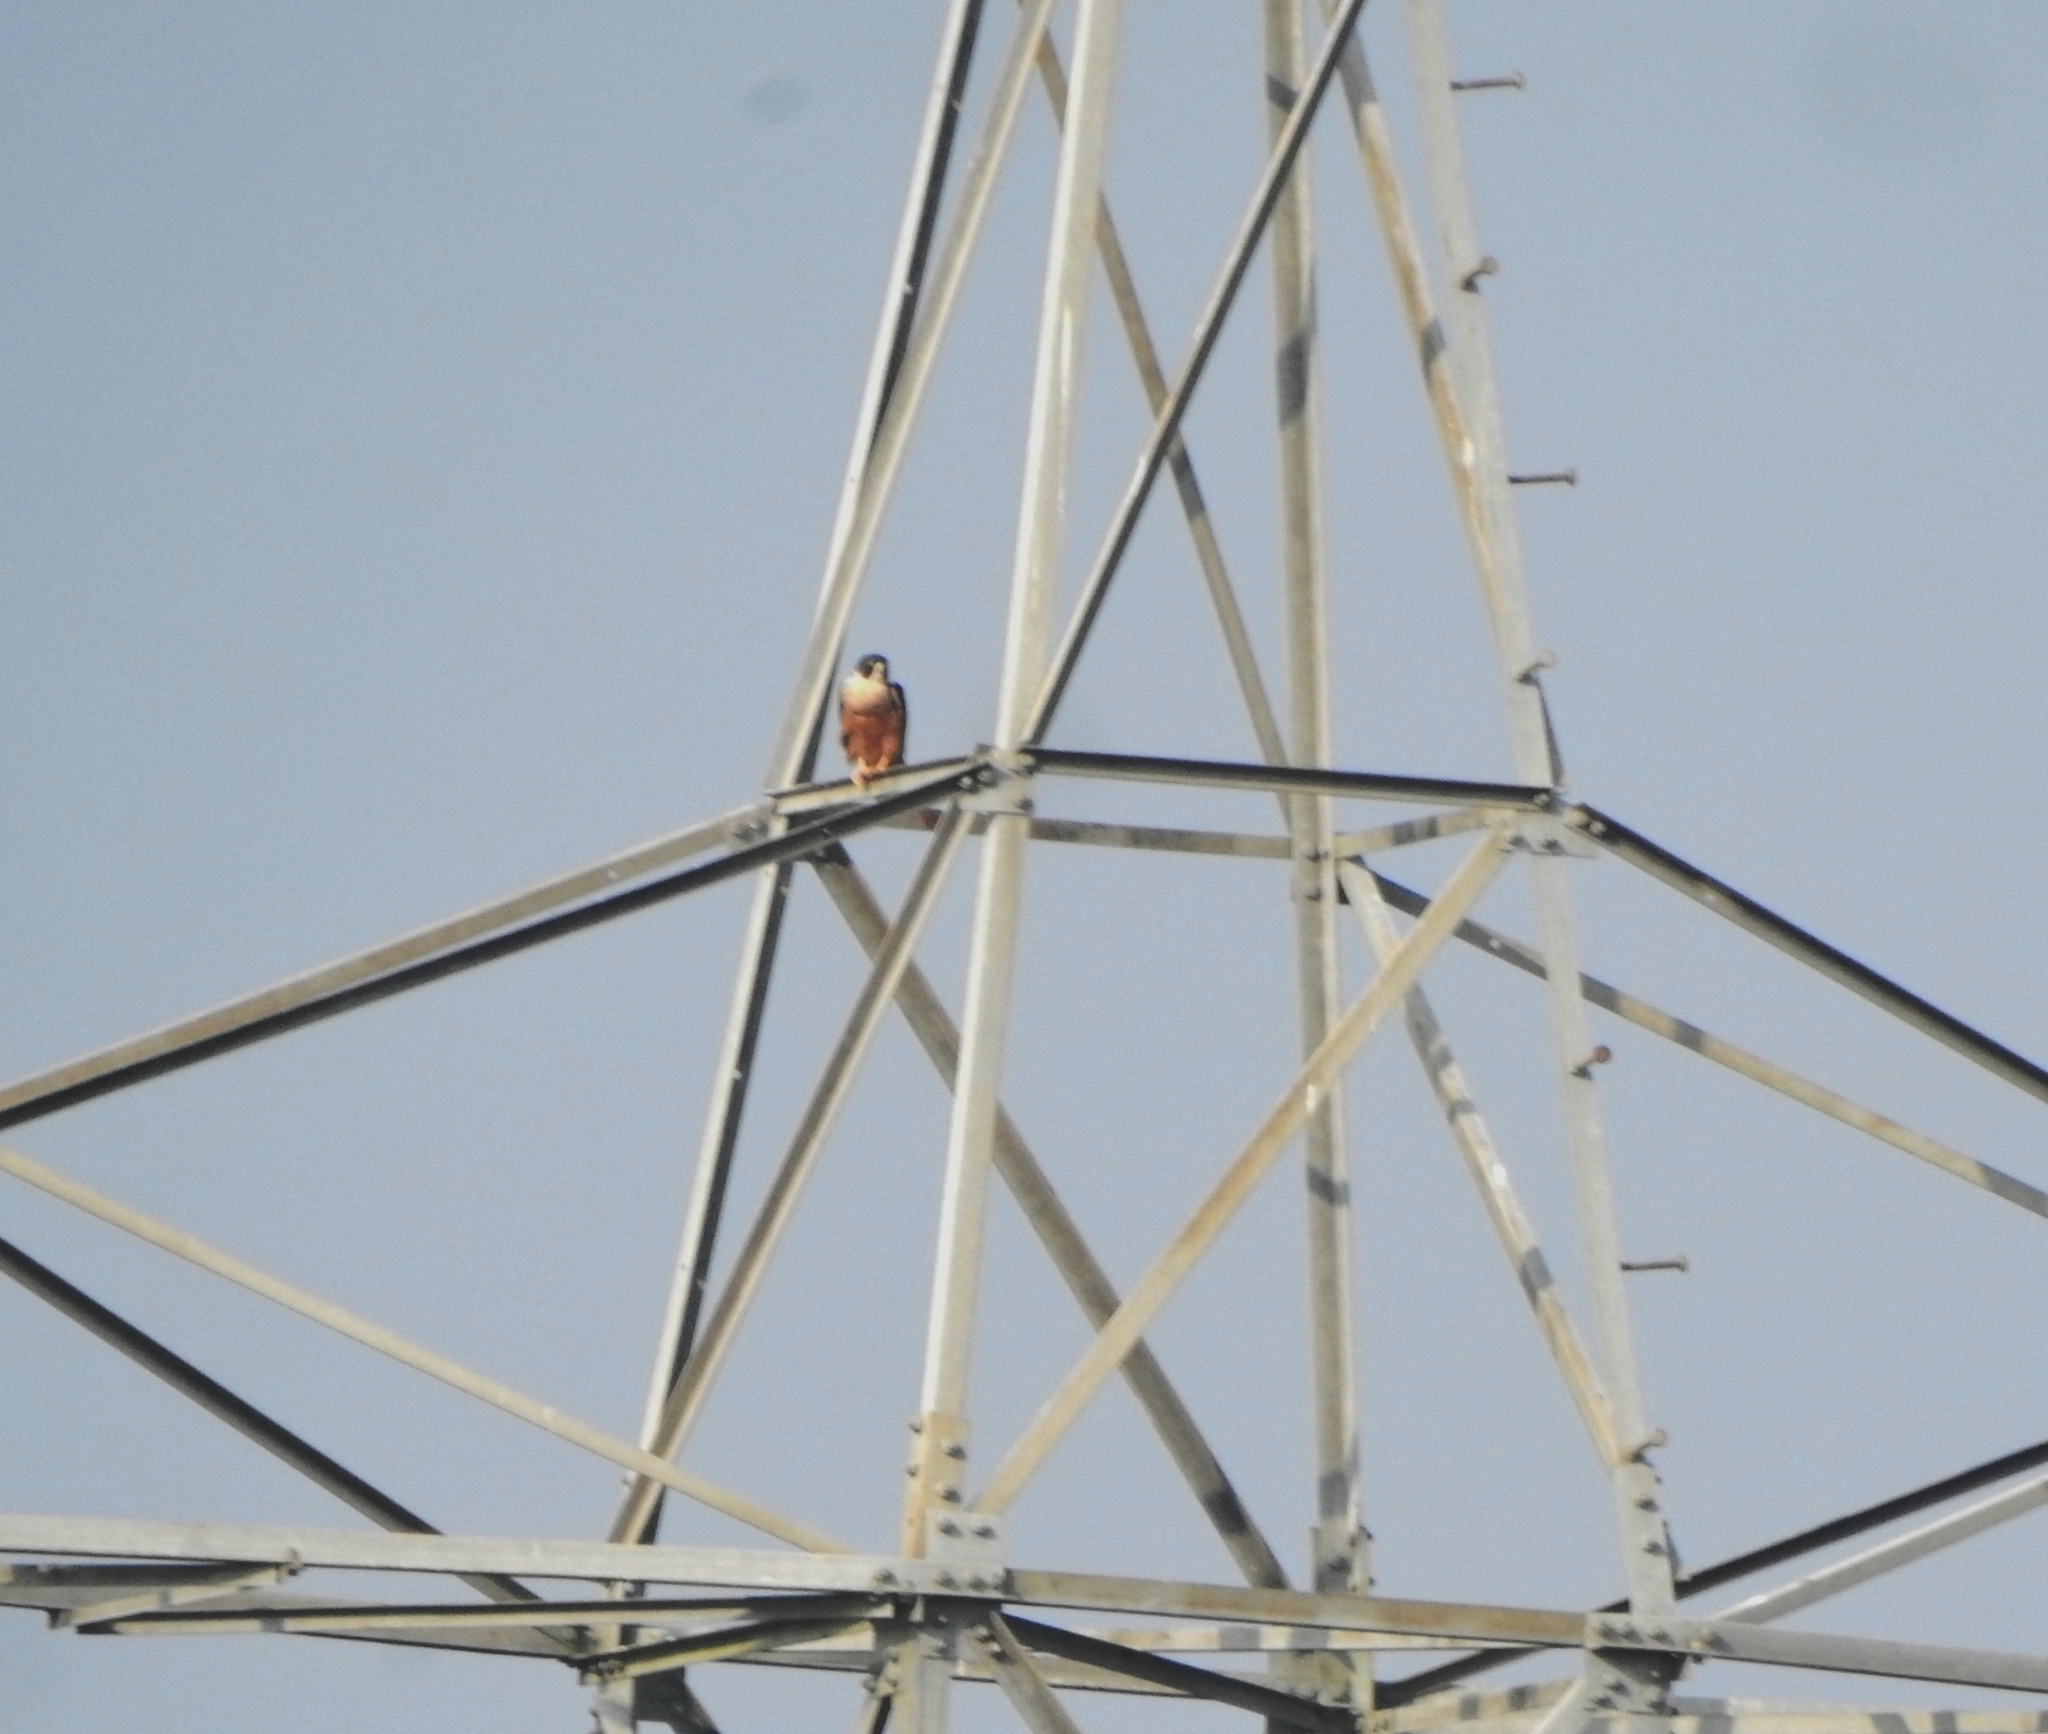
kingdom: Animalia
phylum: Chordata
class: Aves
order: Falconiformes
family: Falconidae
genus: Falco
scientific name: Falco peregrinus
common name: Peregrine falcon
